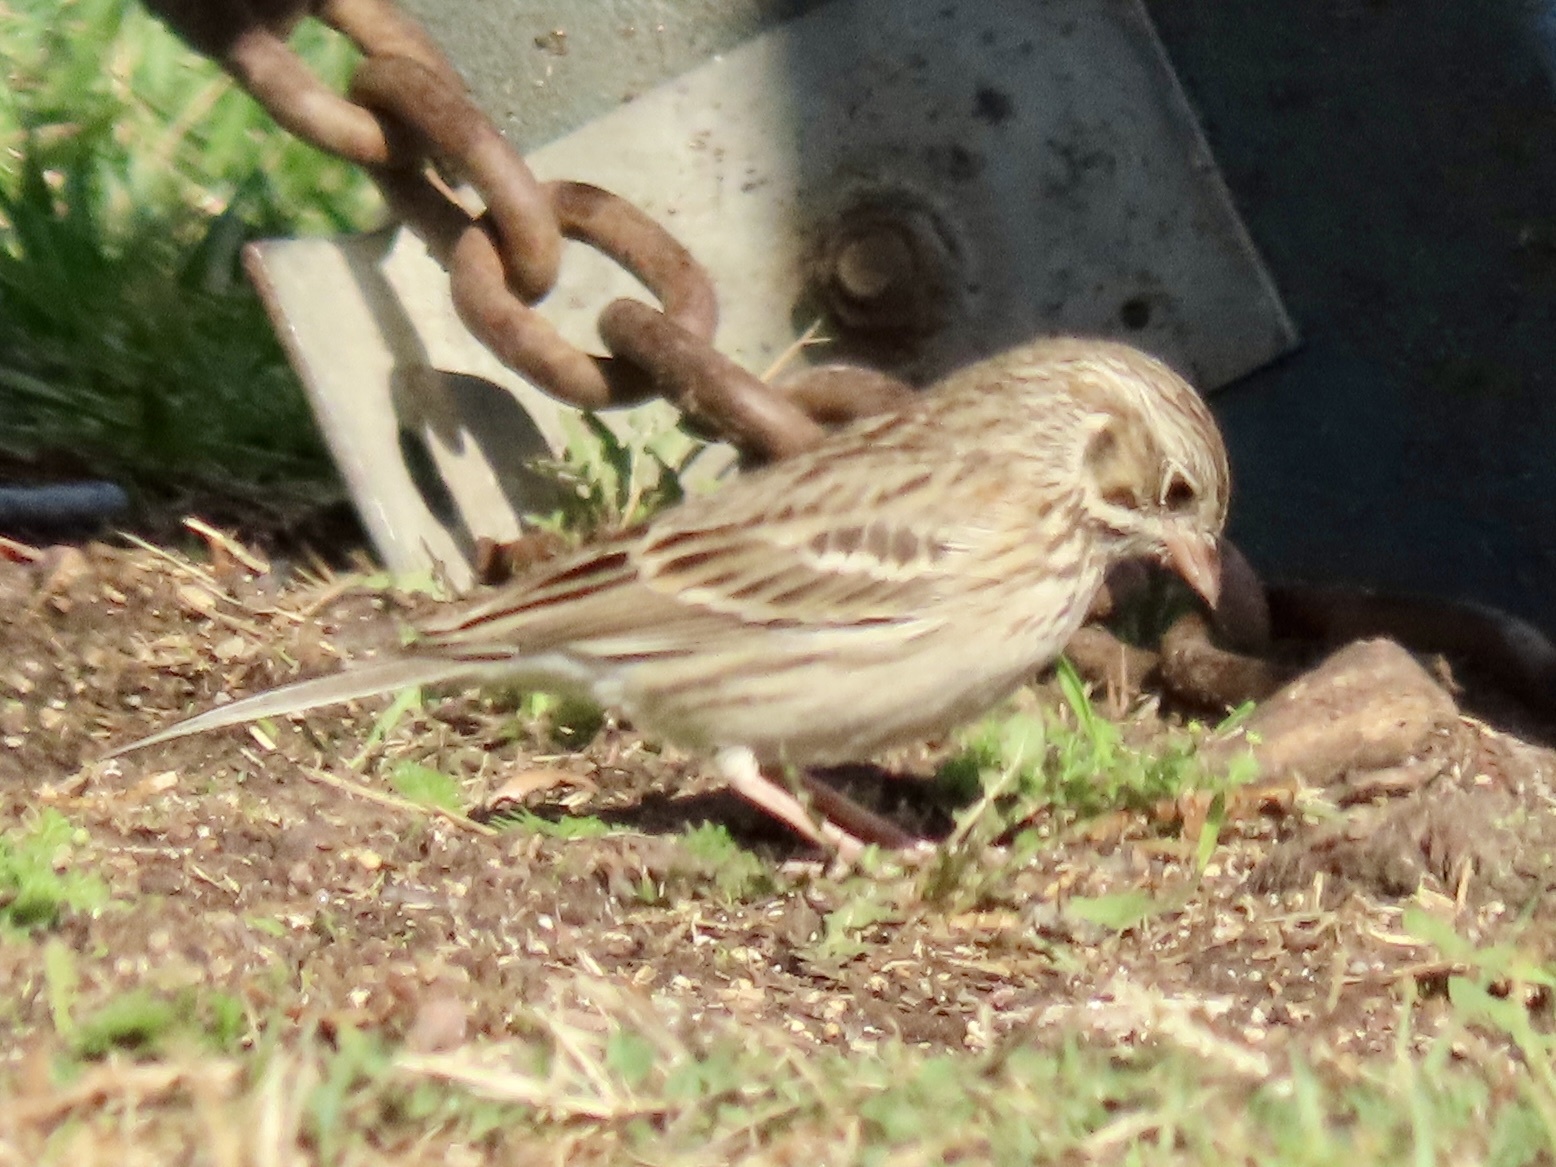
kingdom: Animalia
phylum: Chordata
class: Aves
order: Passeriformes
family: Passerellidae
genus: Pooecetes
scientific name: Pooecetes gramineus
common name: Vesper sparrow
